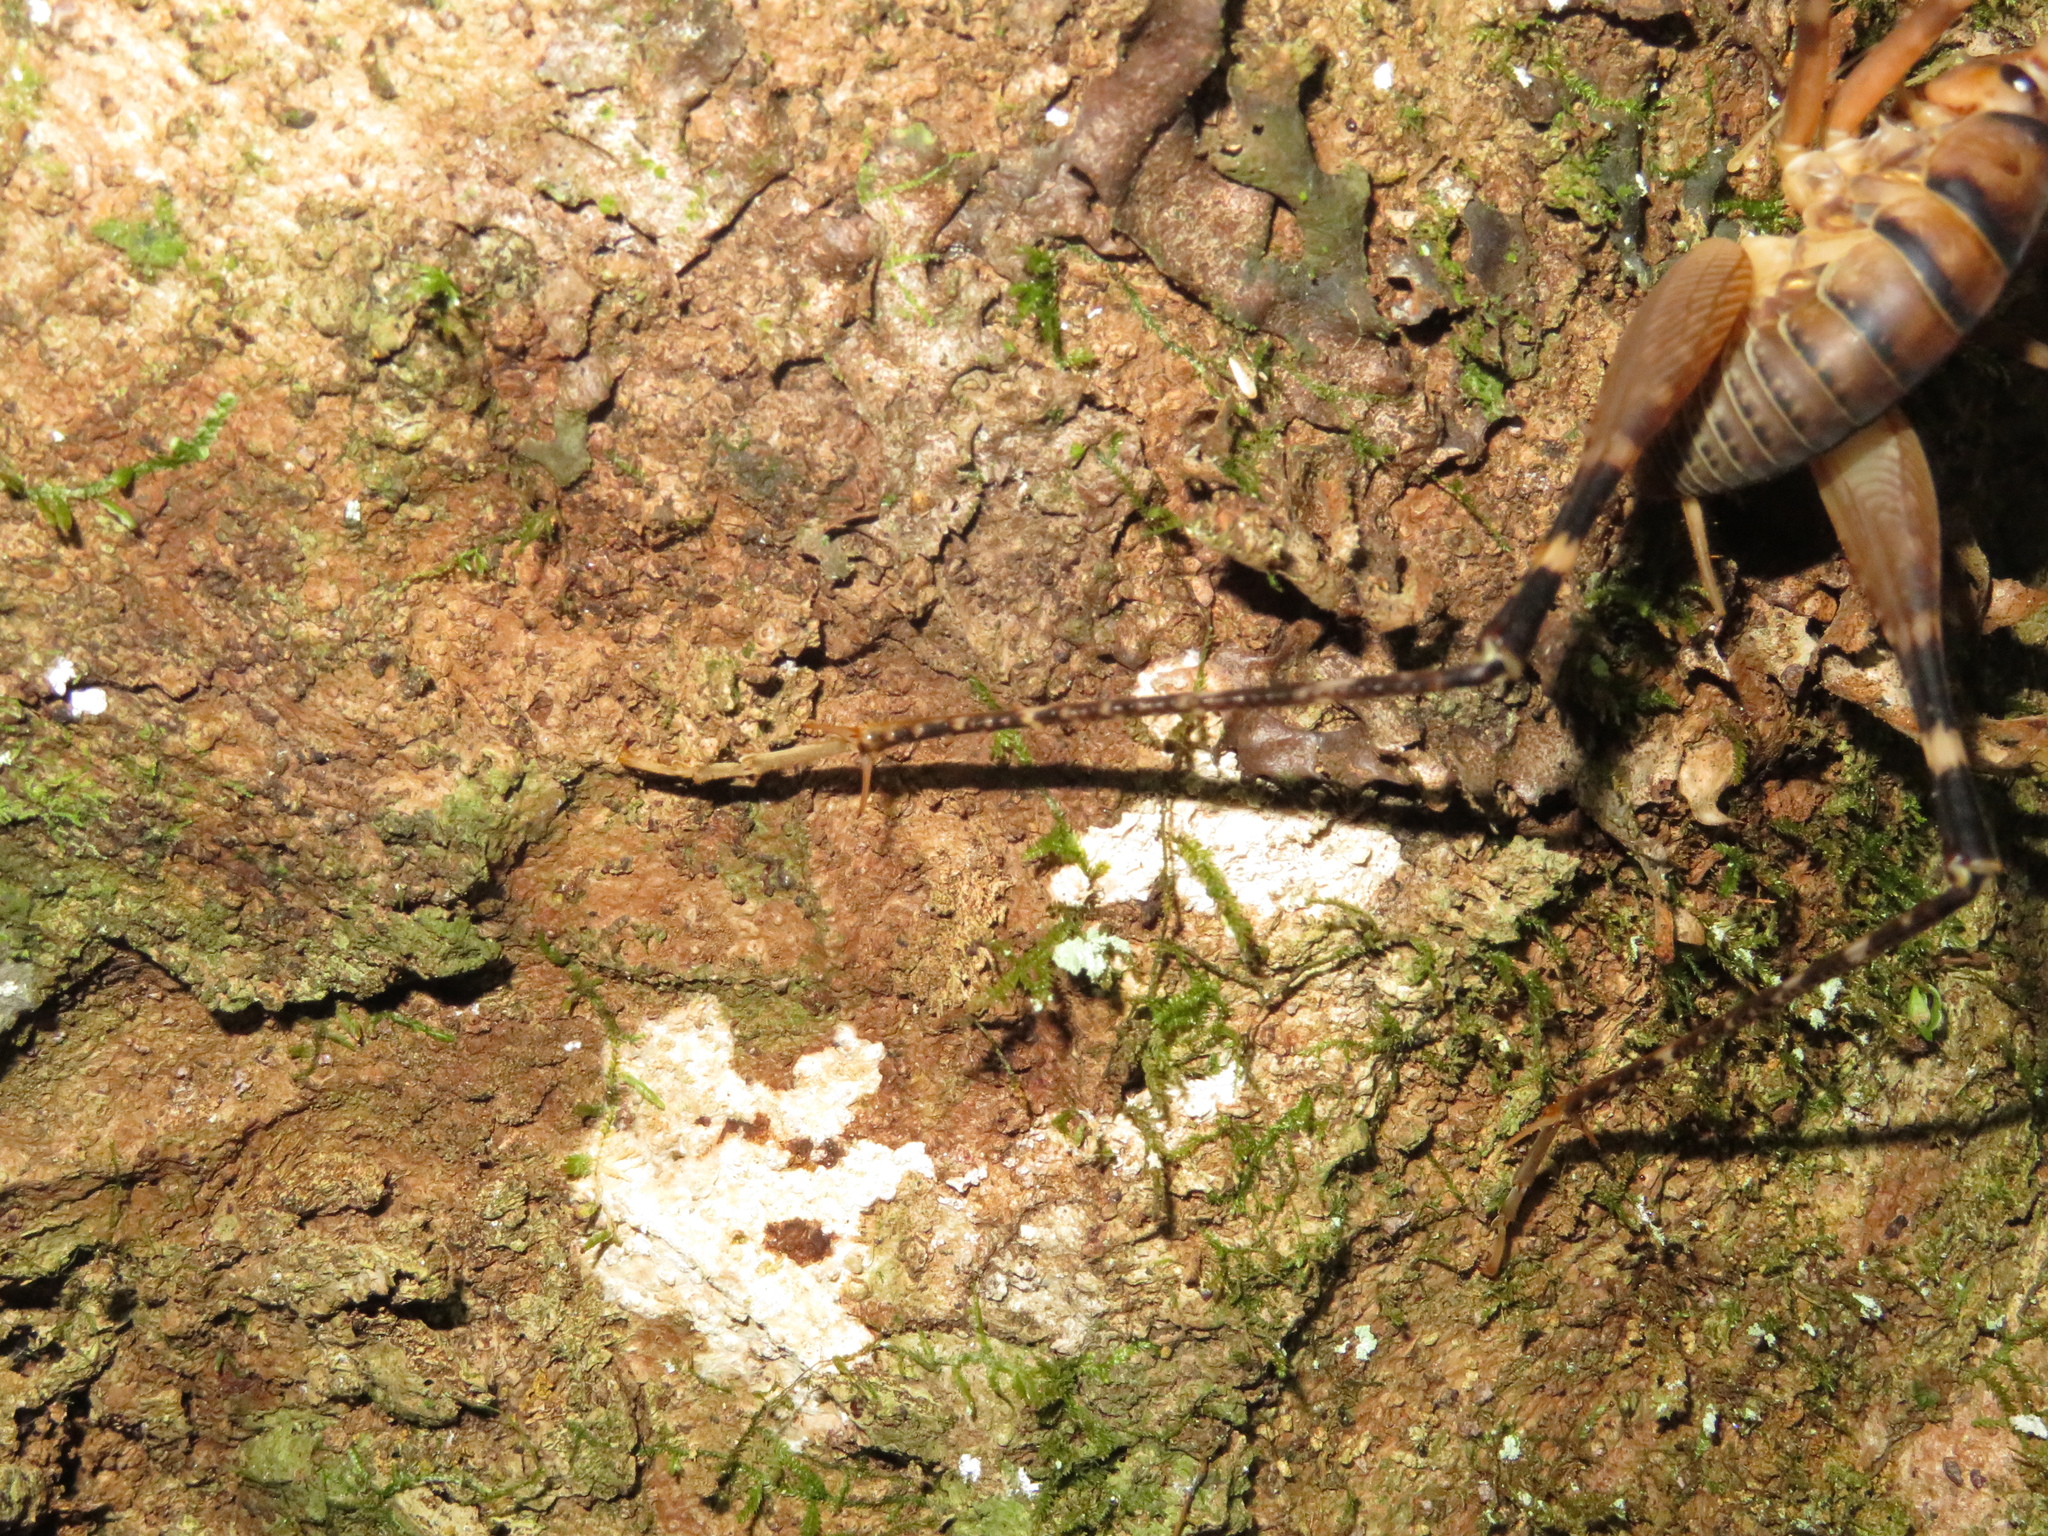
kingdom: Animalia
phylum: Arthropoda
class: Insecta
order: Orthoptera
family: Rhaphidophoridae
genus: Pachyrhamma
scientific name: Pachyrhamma edwardsii
